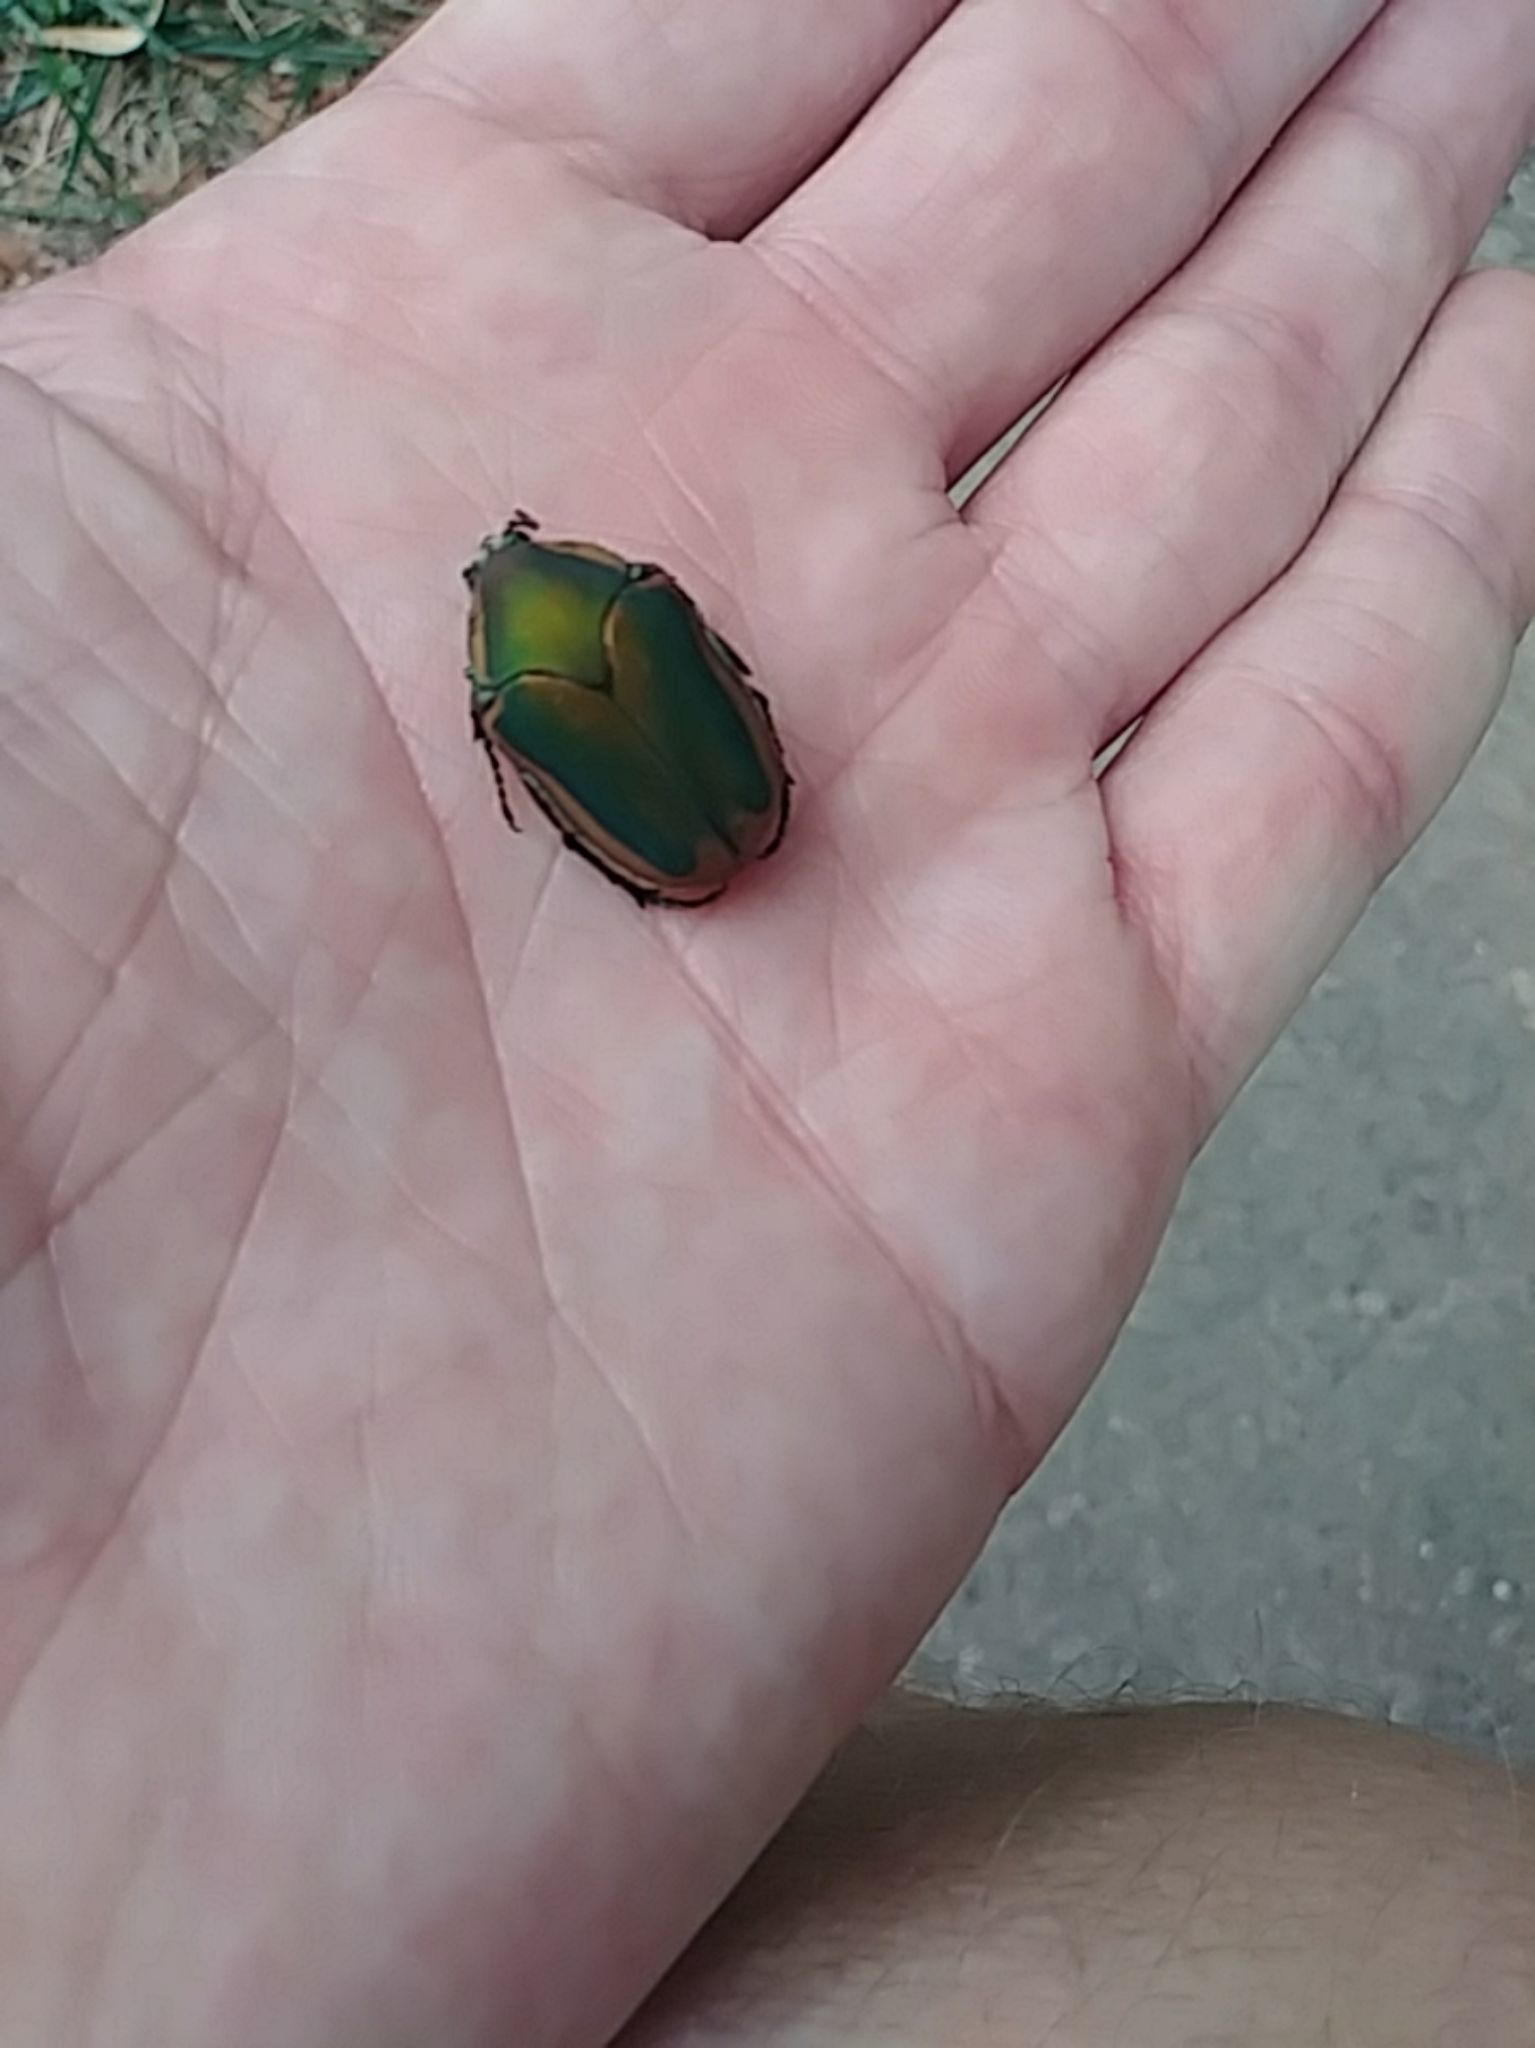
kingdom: Animalia
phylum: Arthropoda
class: Insecta
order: Coleoptera
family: Scarabaeidae
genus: Cotinis
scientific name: Cotinis nitida
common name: Common green june beetle
